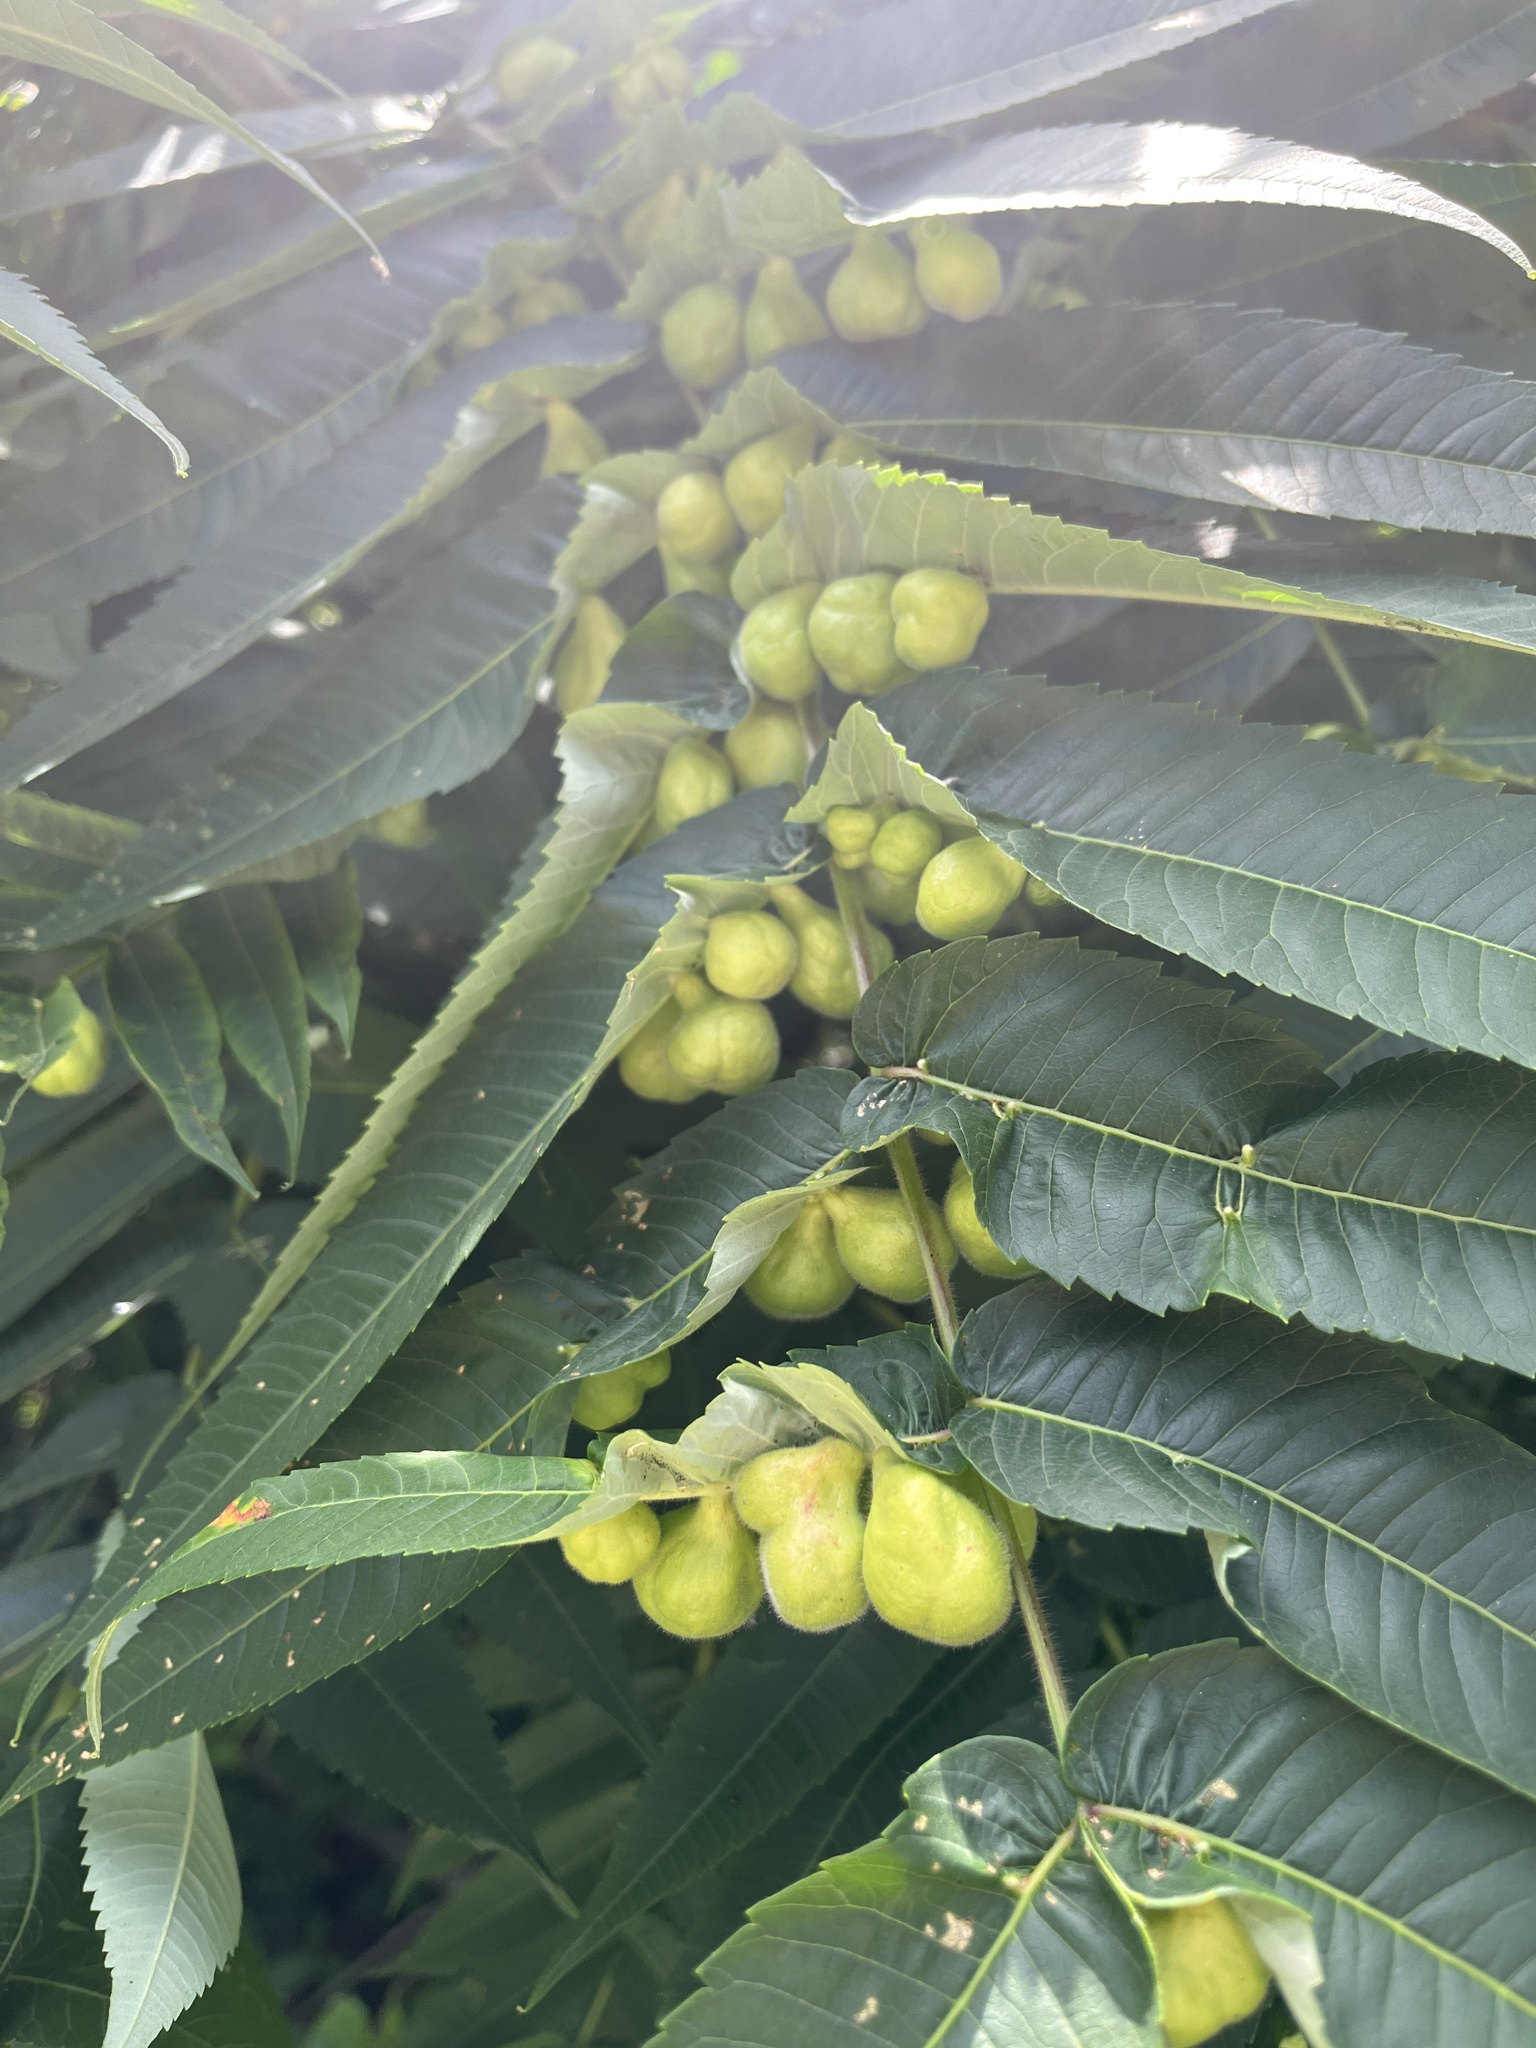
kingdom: Animalia
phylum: Arthropoda
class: Insecta
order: Hemiptera
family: Aphididae
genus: Melaphis
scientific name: Melaphis rhois
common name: Sumac gall aphid
